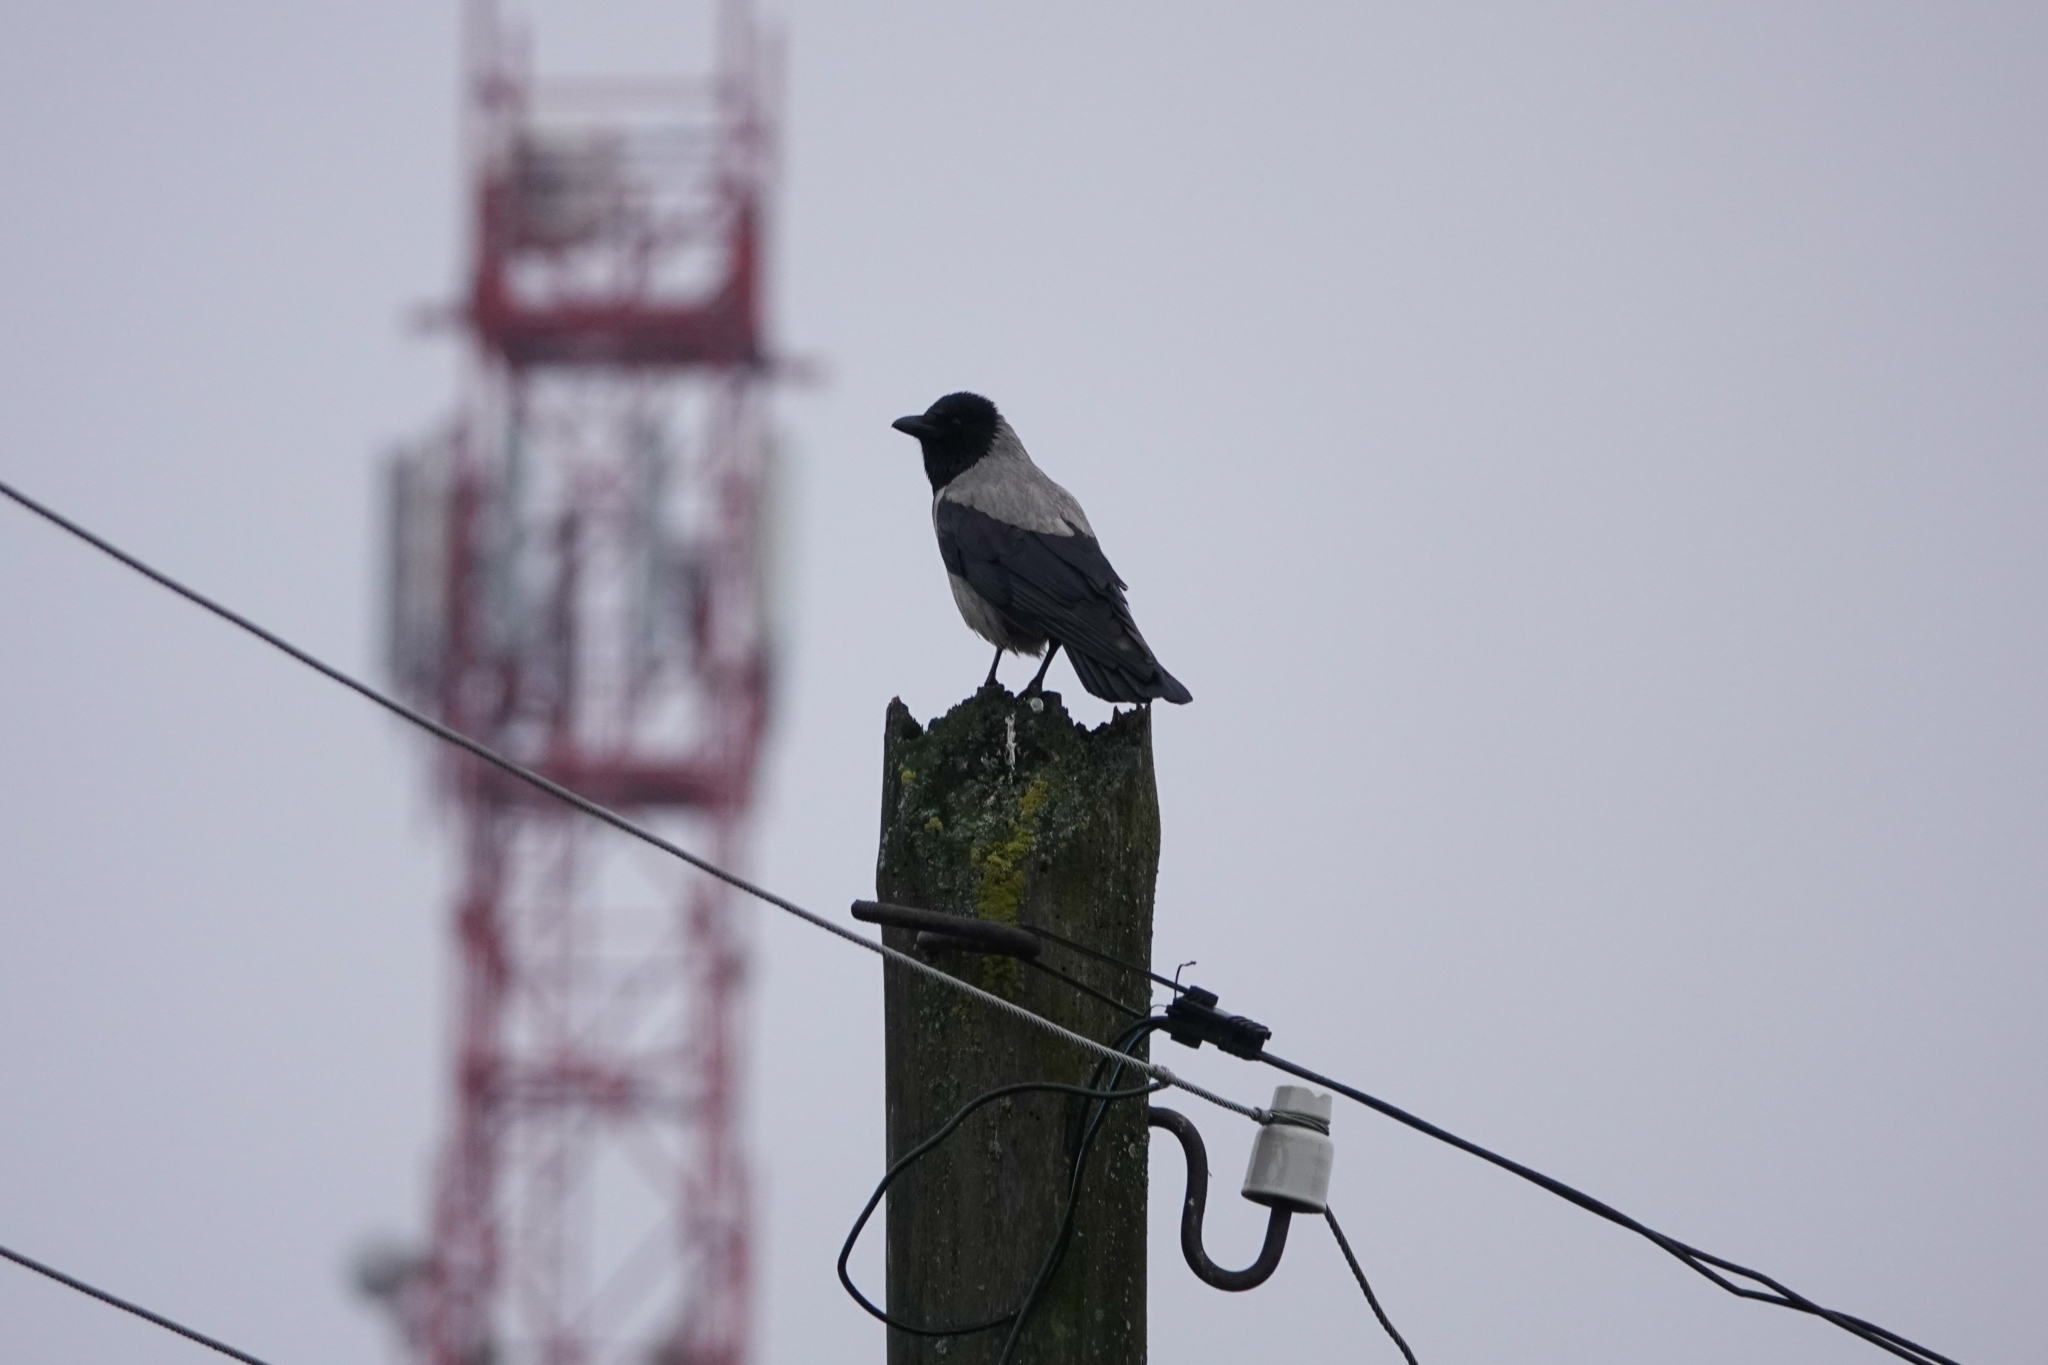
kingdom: Animalia
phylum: Chordata
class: Aves
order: Passeriformes
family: Corvidae
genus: Corvus
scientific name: Corvus cornix
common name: Hooded crow
